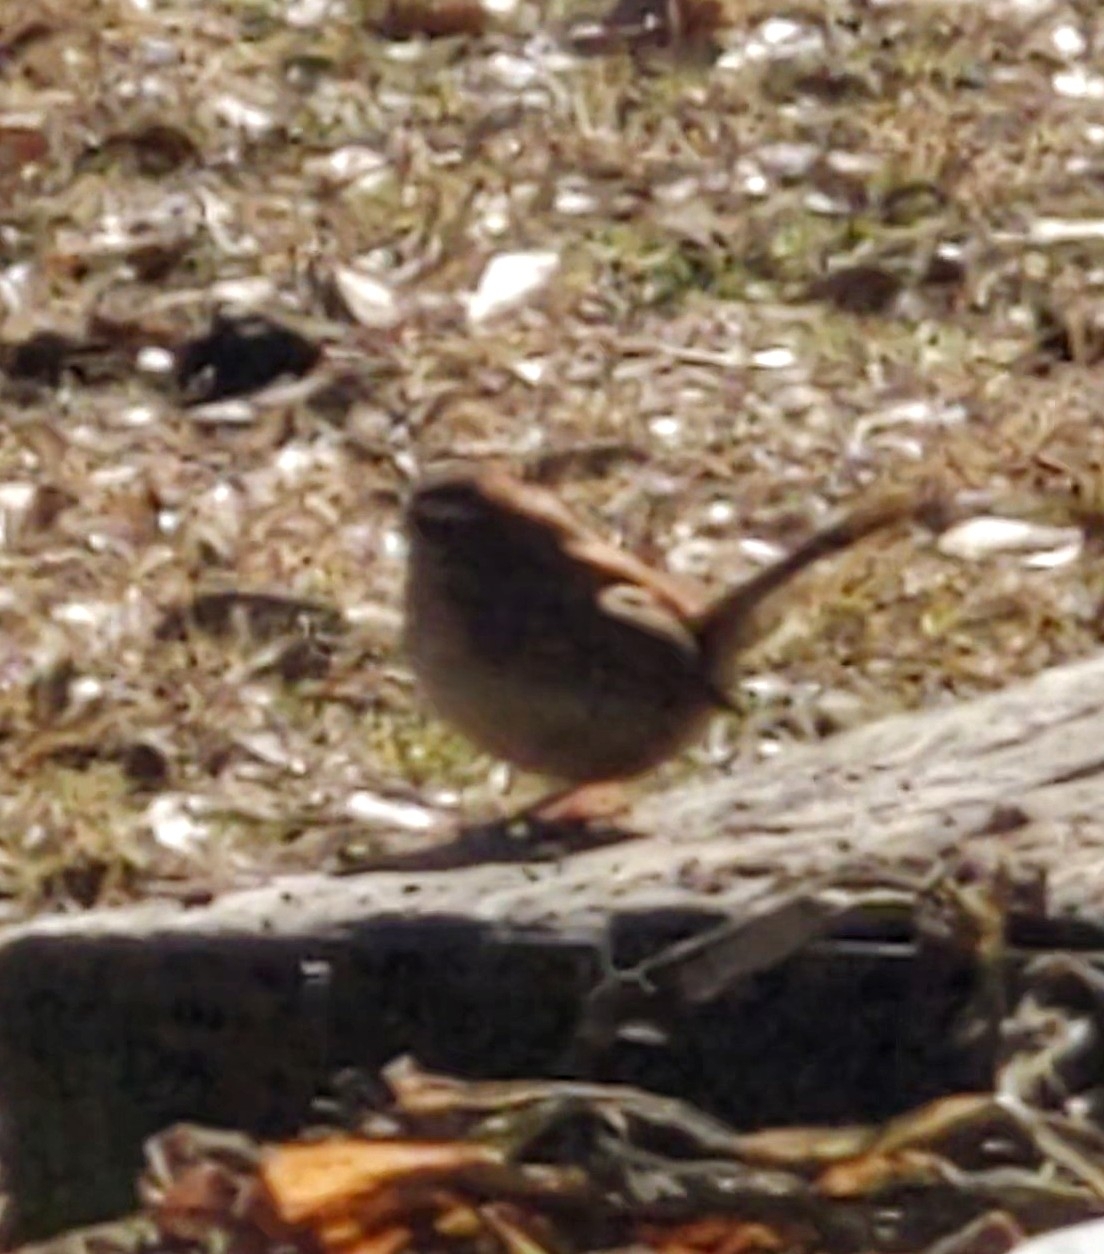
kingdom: Animalia
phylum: Chordata
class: Aves
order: Passeriformes
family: Troglodytidae
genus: Thryothorus
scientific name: Thryothorus ludovicianus
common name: Carolina wren
